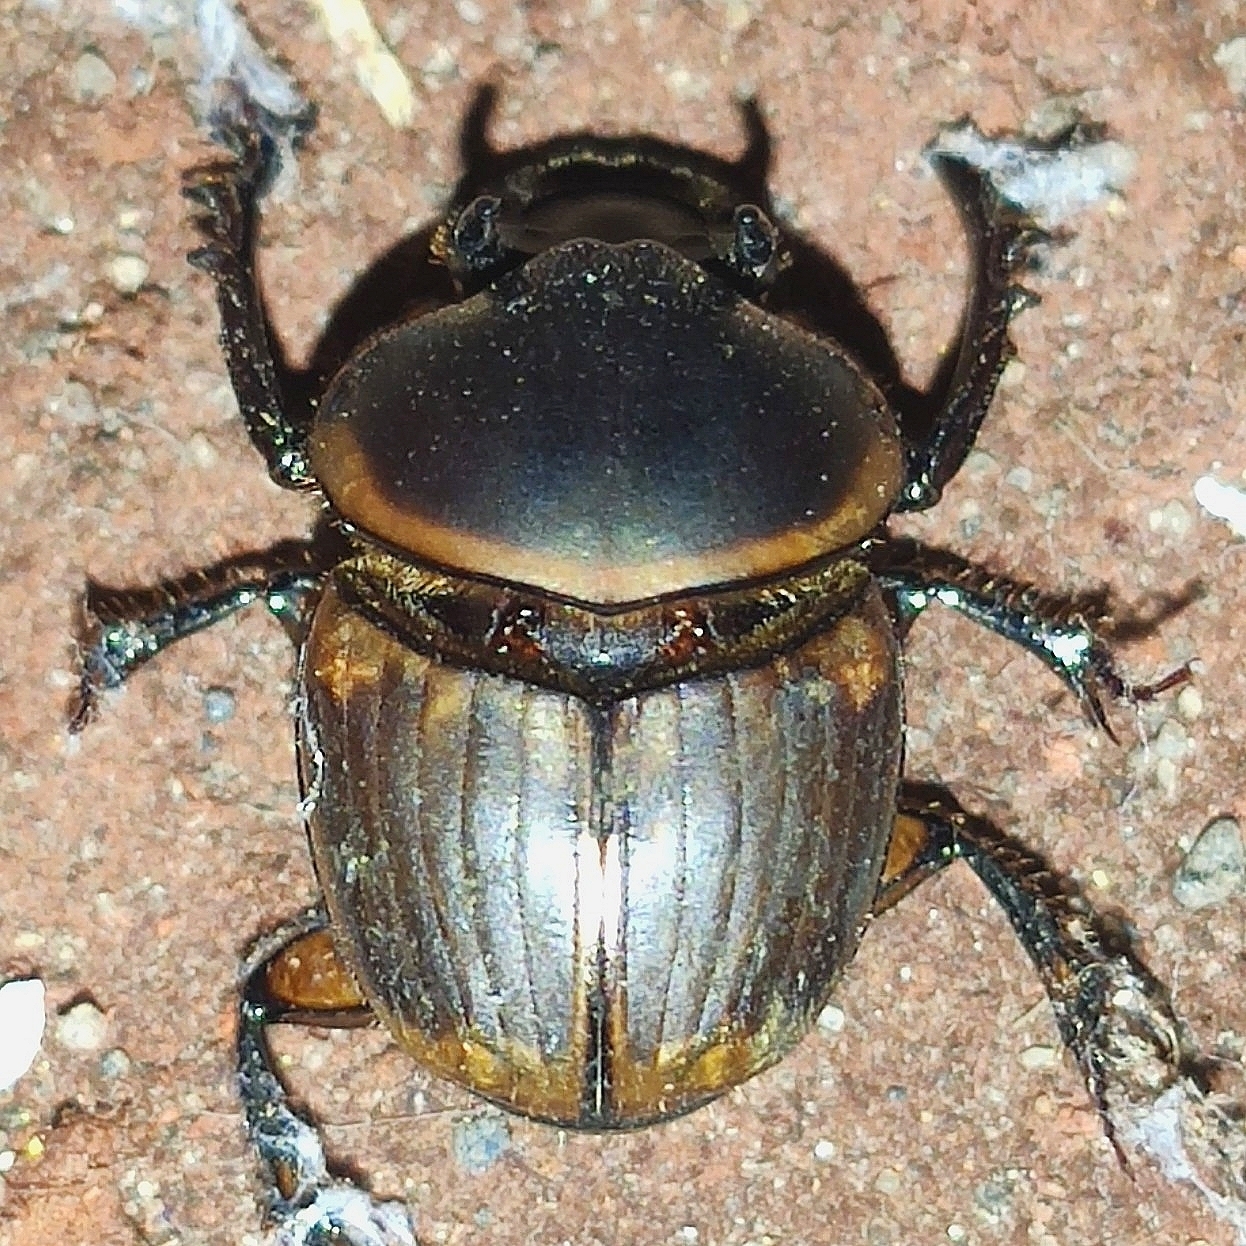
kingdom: Animalia
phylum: Arthropoda
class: Insecta
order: Coleoptera
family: Scarabaeidae
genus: Digitonthophagus
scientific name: Digitonthophagus gazella
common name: Brown dung beetle
